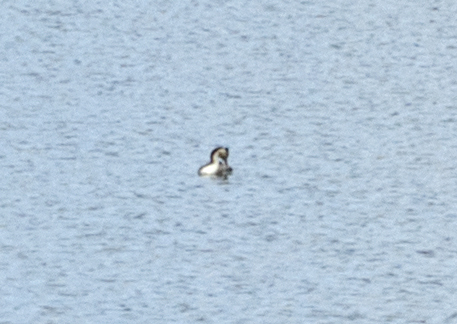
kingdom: Animalia
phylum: Chordata
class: Aves
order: Podicipediformes
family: Podicipedidae
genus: Podiceps
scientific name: Podiceps cristatus
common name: Great crested grebe
